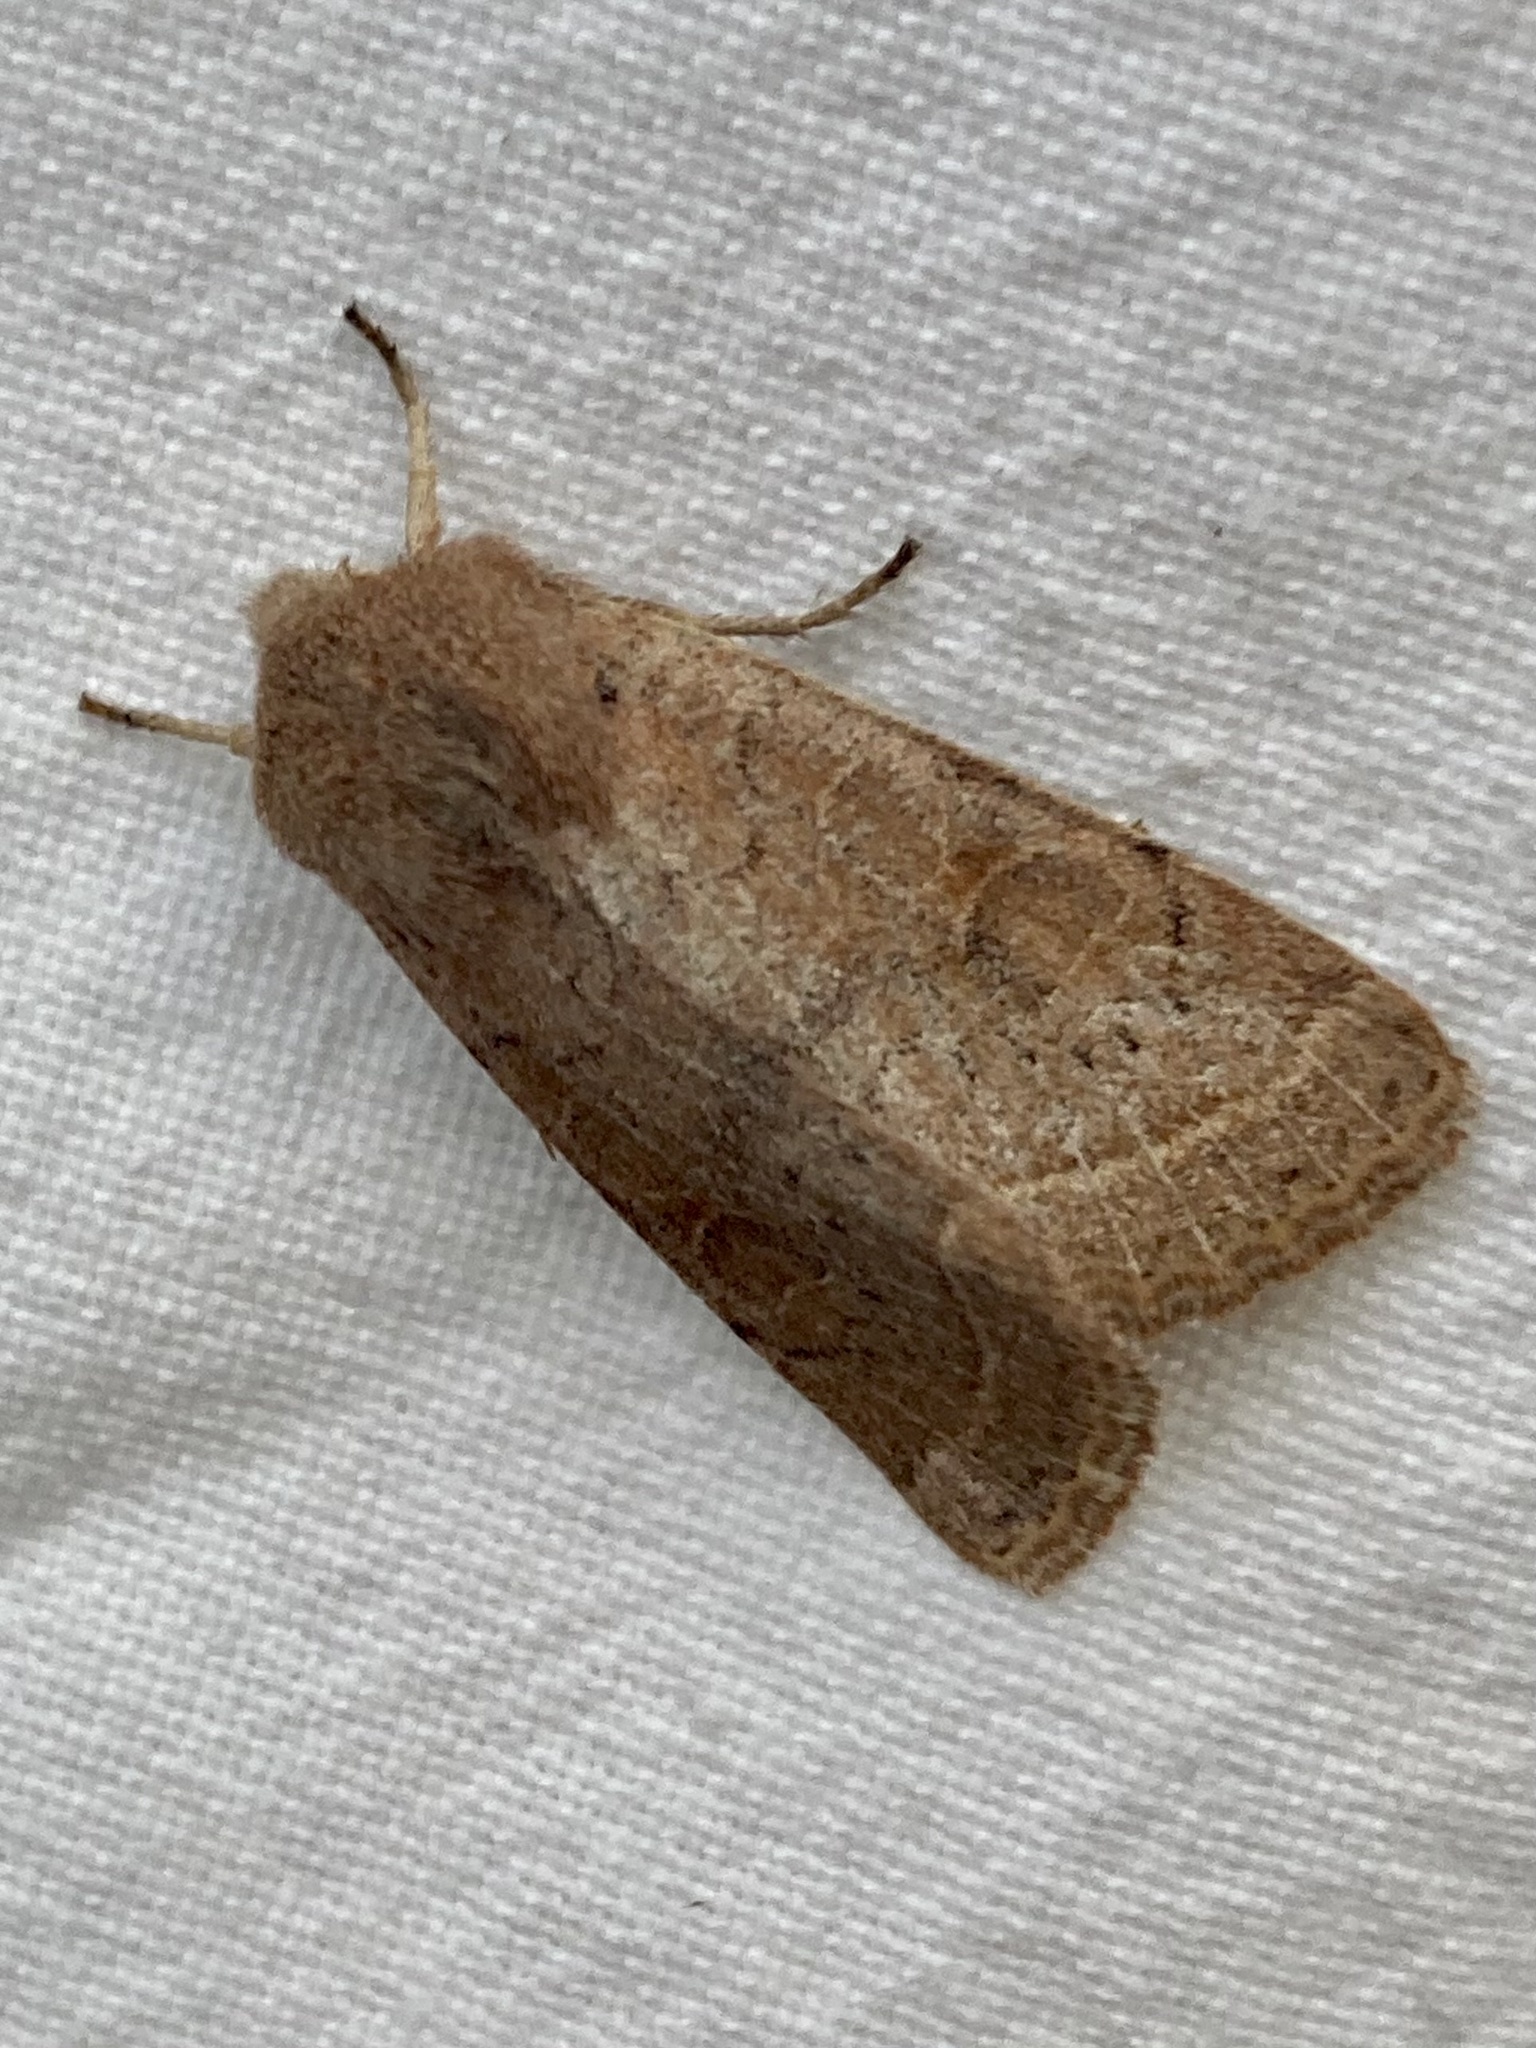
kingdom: Animalia
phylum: Arthropoda
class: Insecta
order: Lepidoptera
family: Noctuidae
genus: Orthosia
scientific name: Orthosia cerasi
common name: Common quaker
